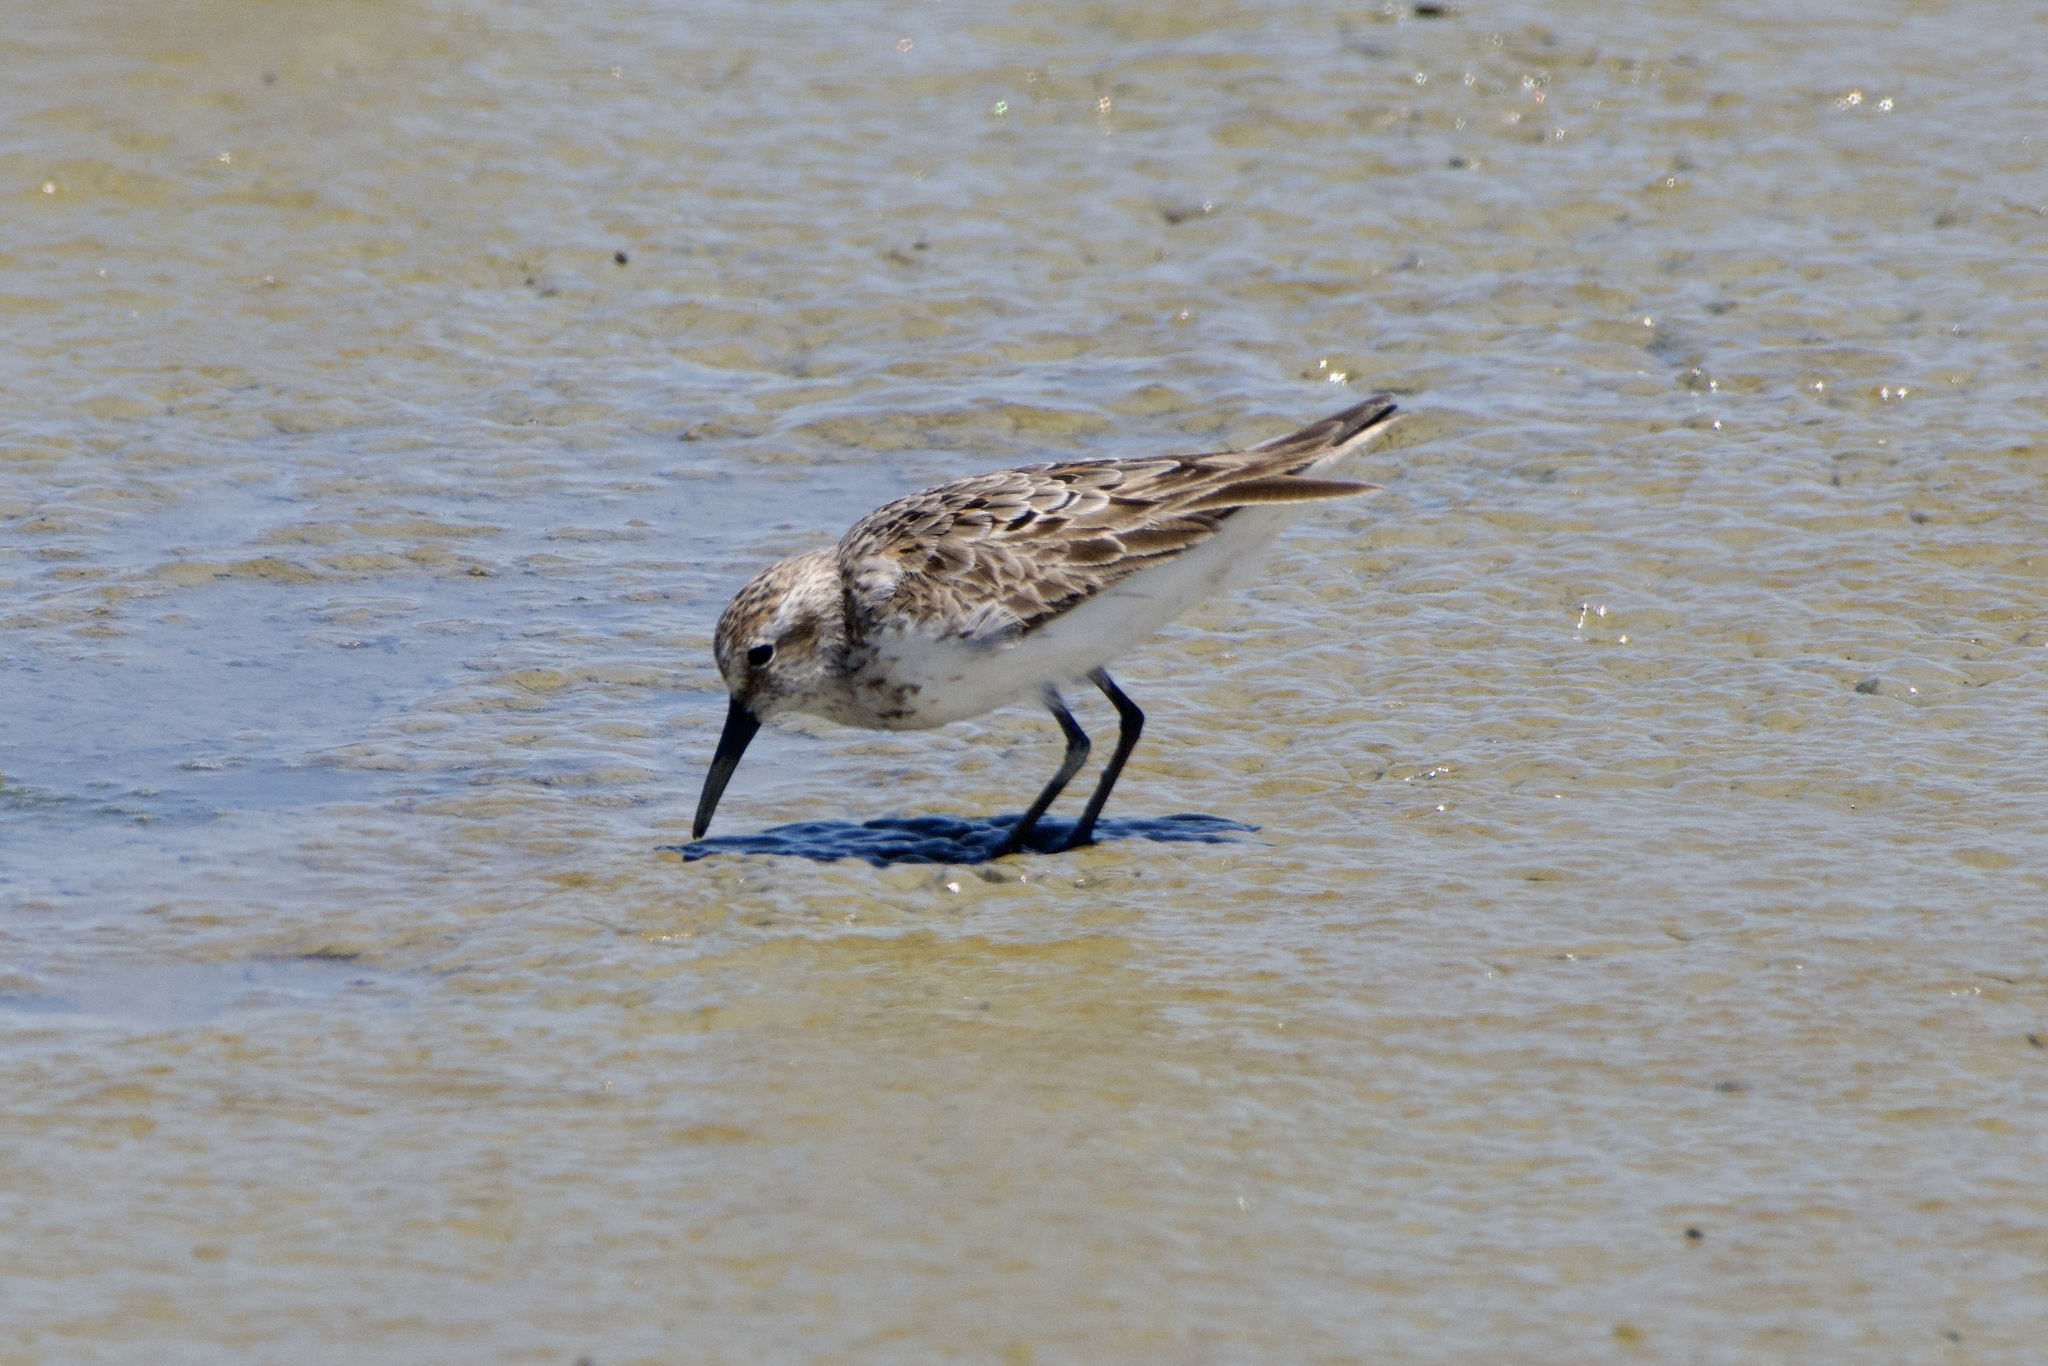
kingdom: Animalia
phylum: Chordata
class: Aves
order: Charadriiformes
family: Scolopacidae
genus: Calidris
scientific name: Calidris mauri
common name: Western sandpiper
